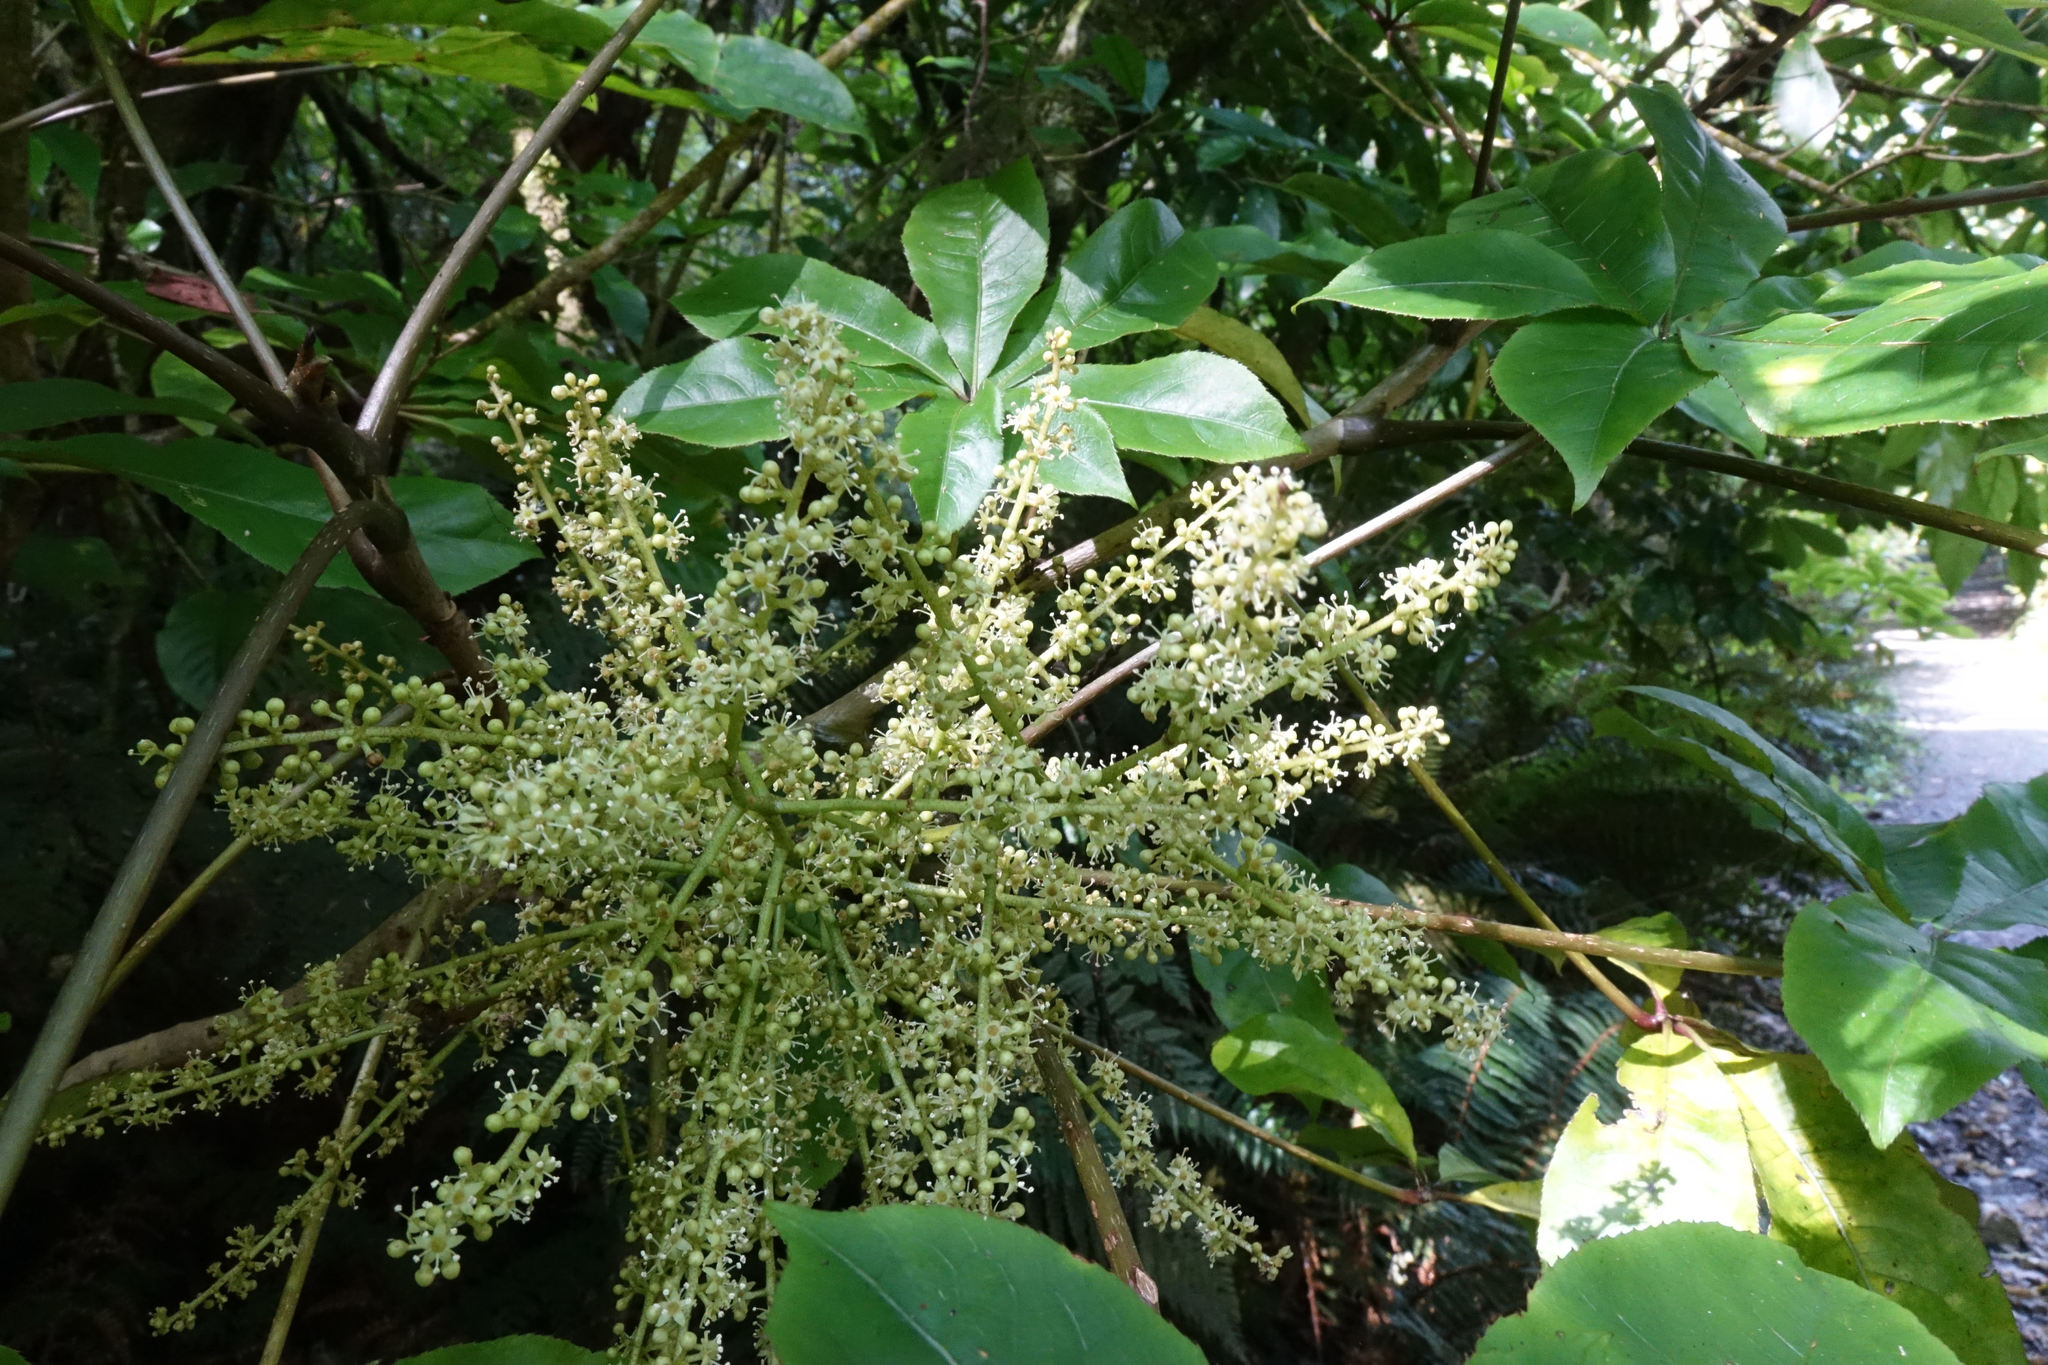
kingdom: Plantae
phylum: Tracheophyta
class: Magnoliopsida
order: Apiales
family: Araliaceae
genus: Schefflera
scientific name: Schefflera digitata
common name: Pate
